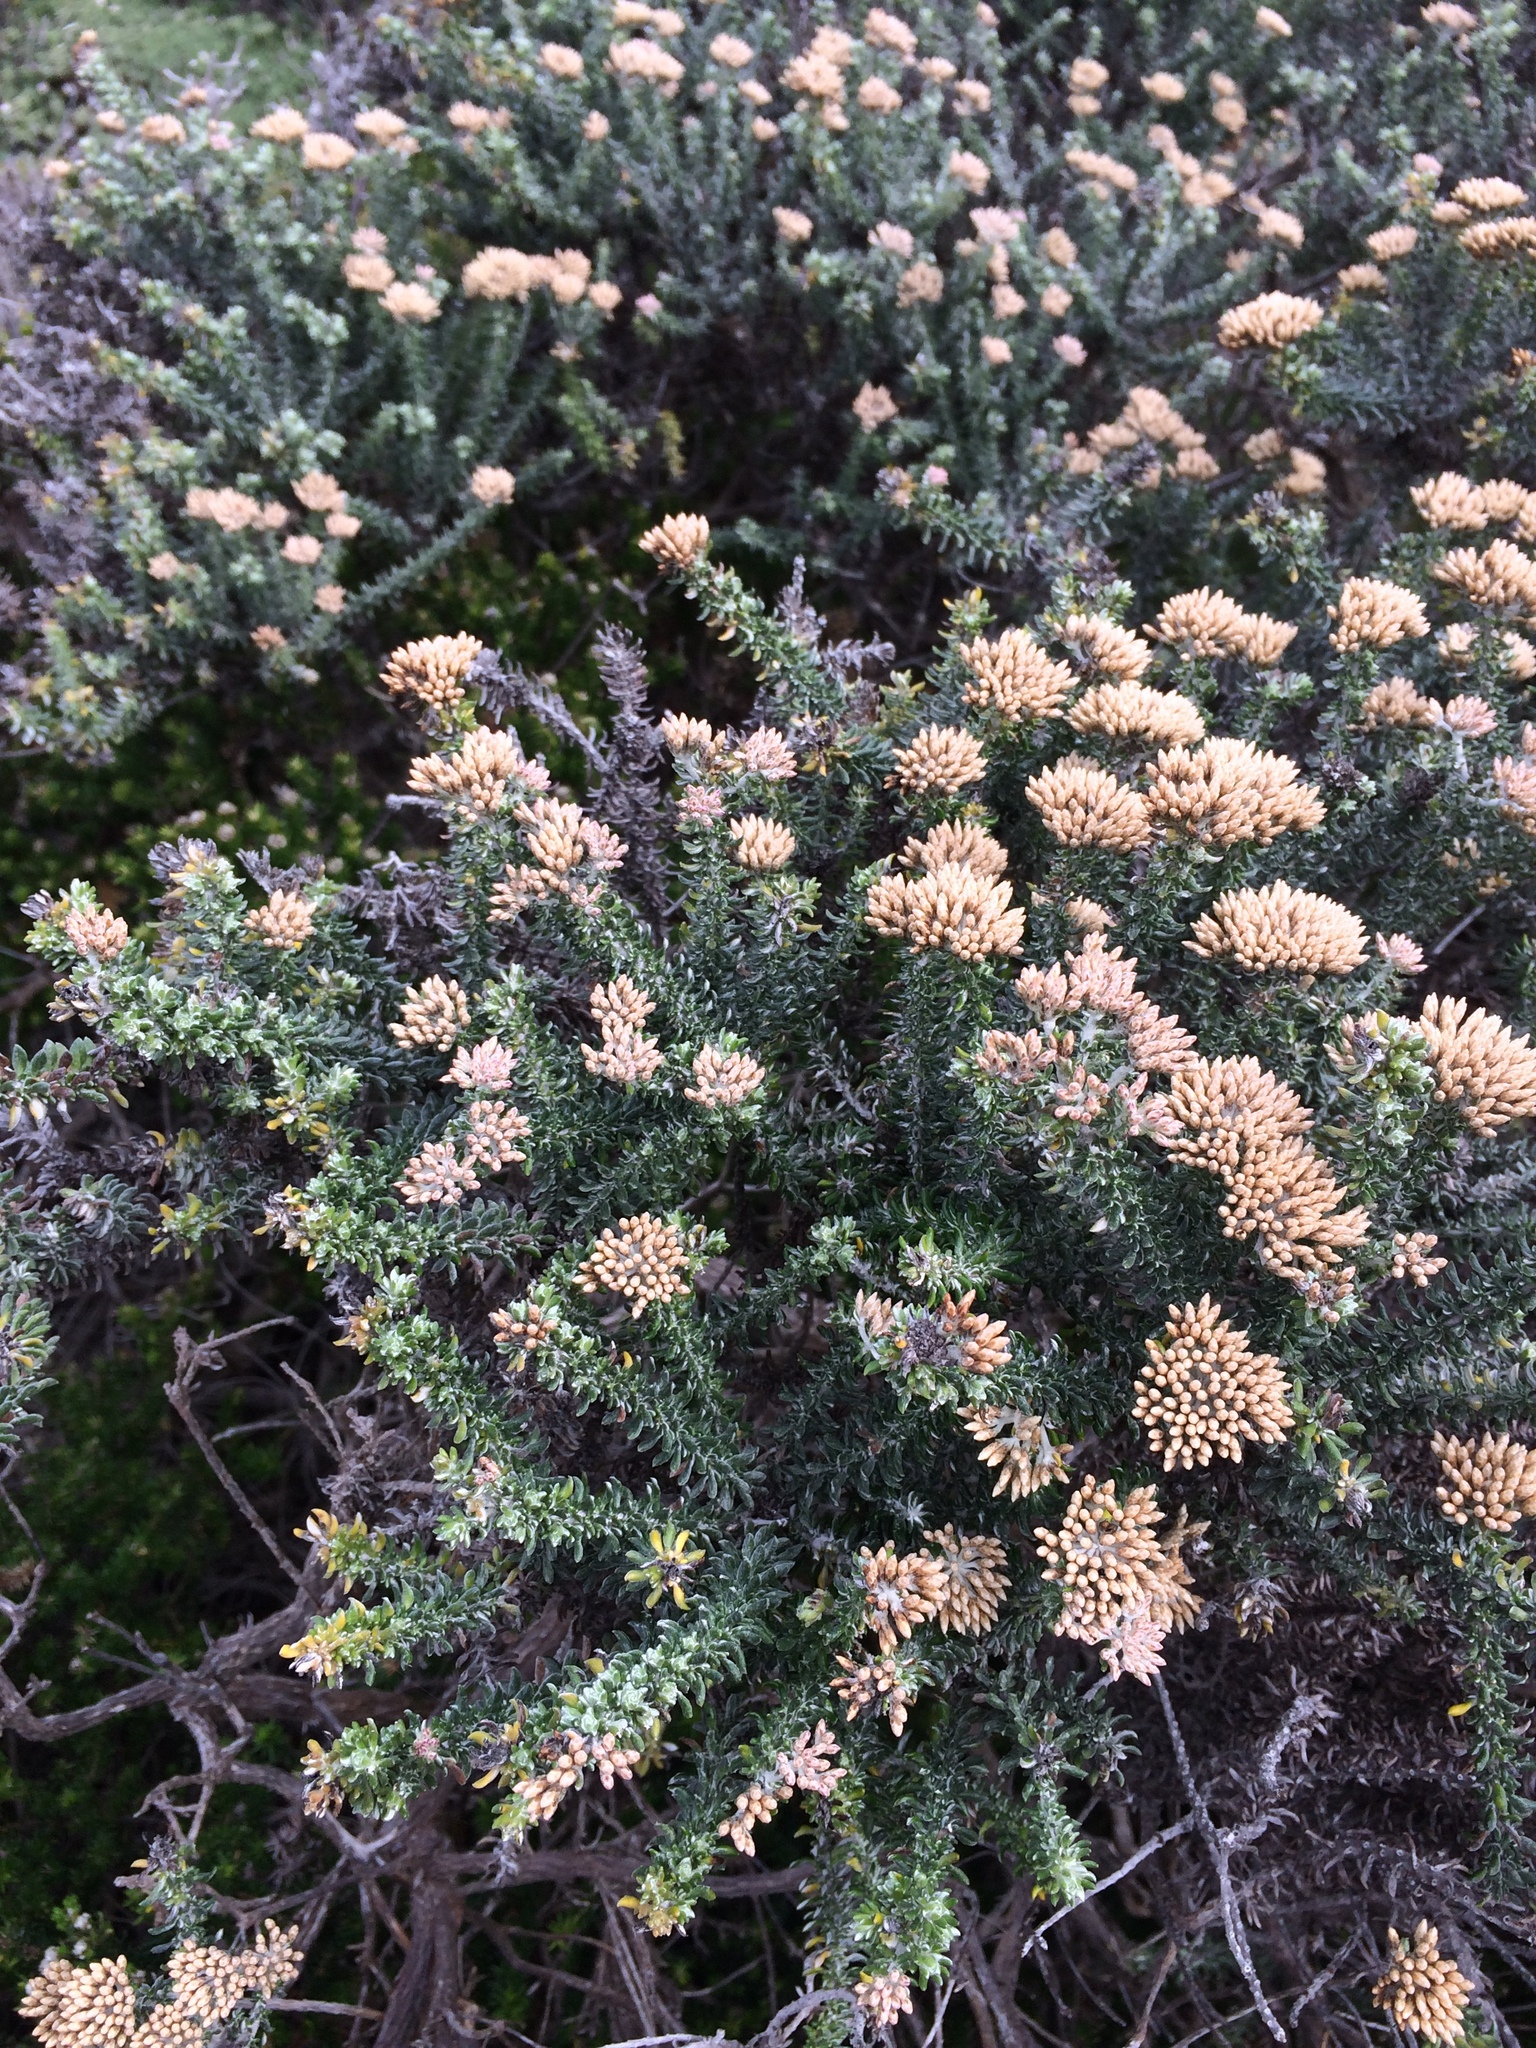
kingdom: Plantae
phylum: Tracheophyta
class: Magnoliopsida
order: Asterales
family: Asteraceae
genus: Metalasia
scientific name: Metalasia densa
